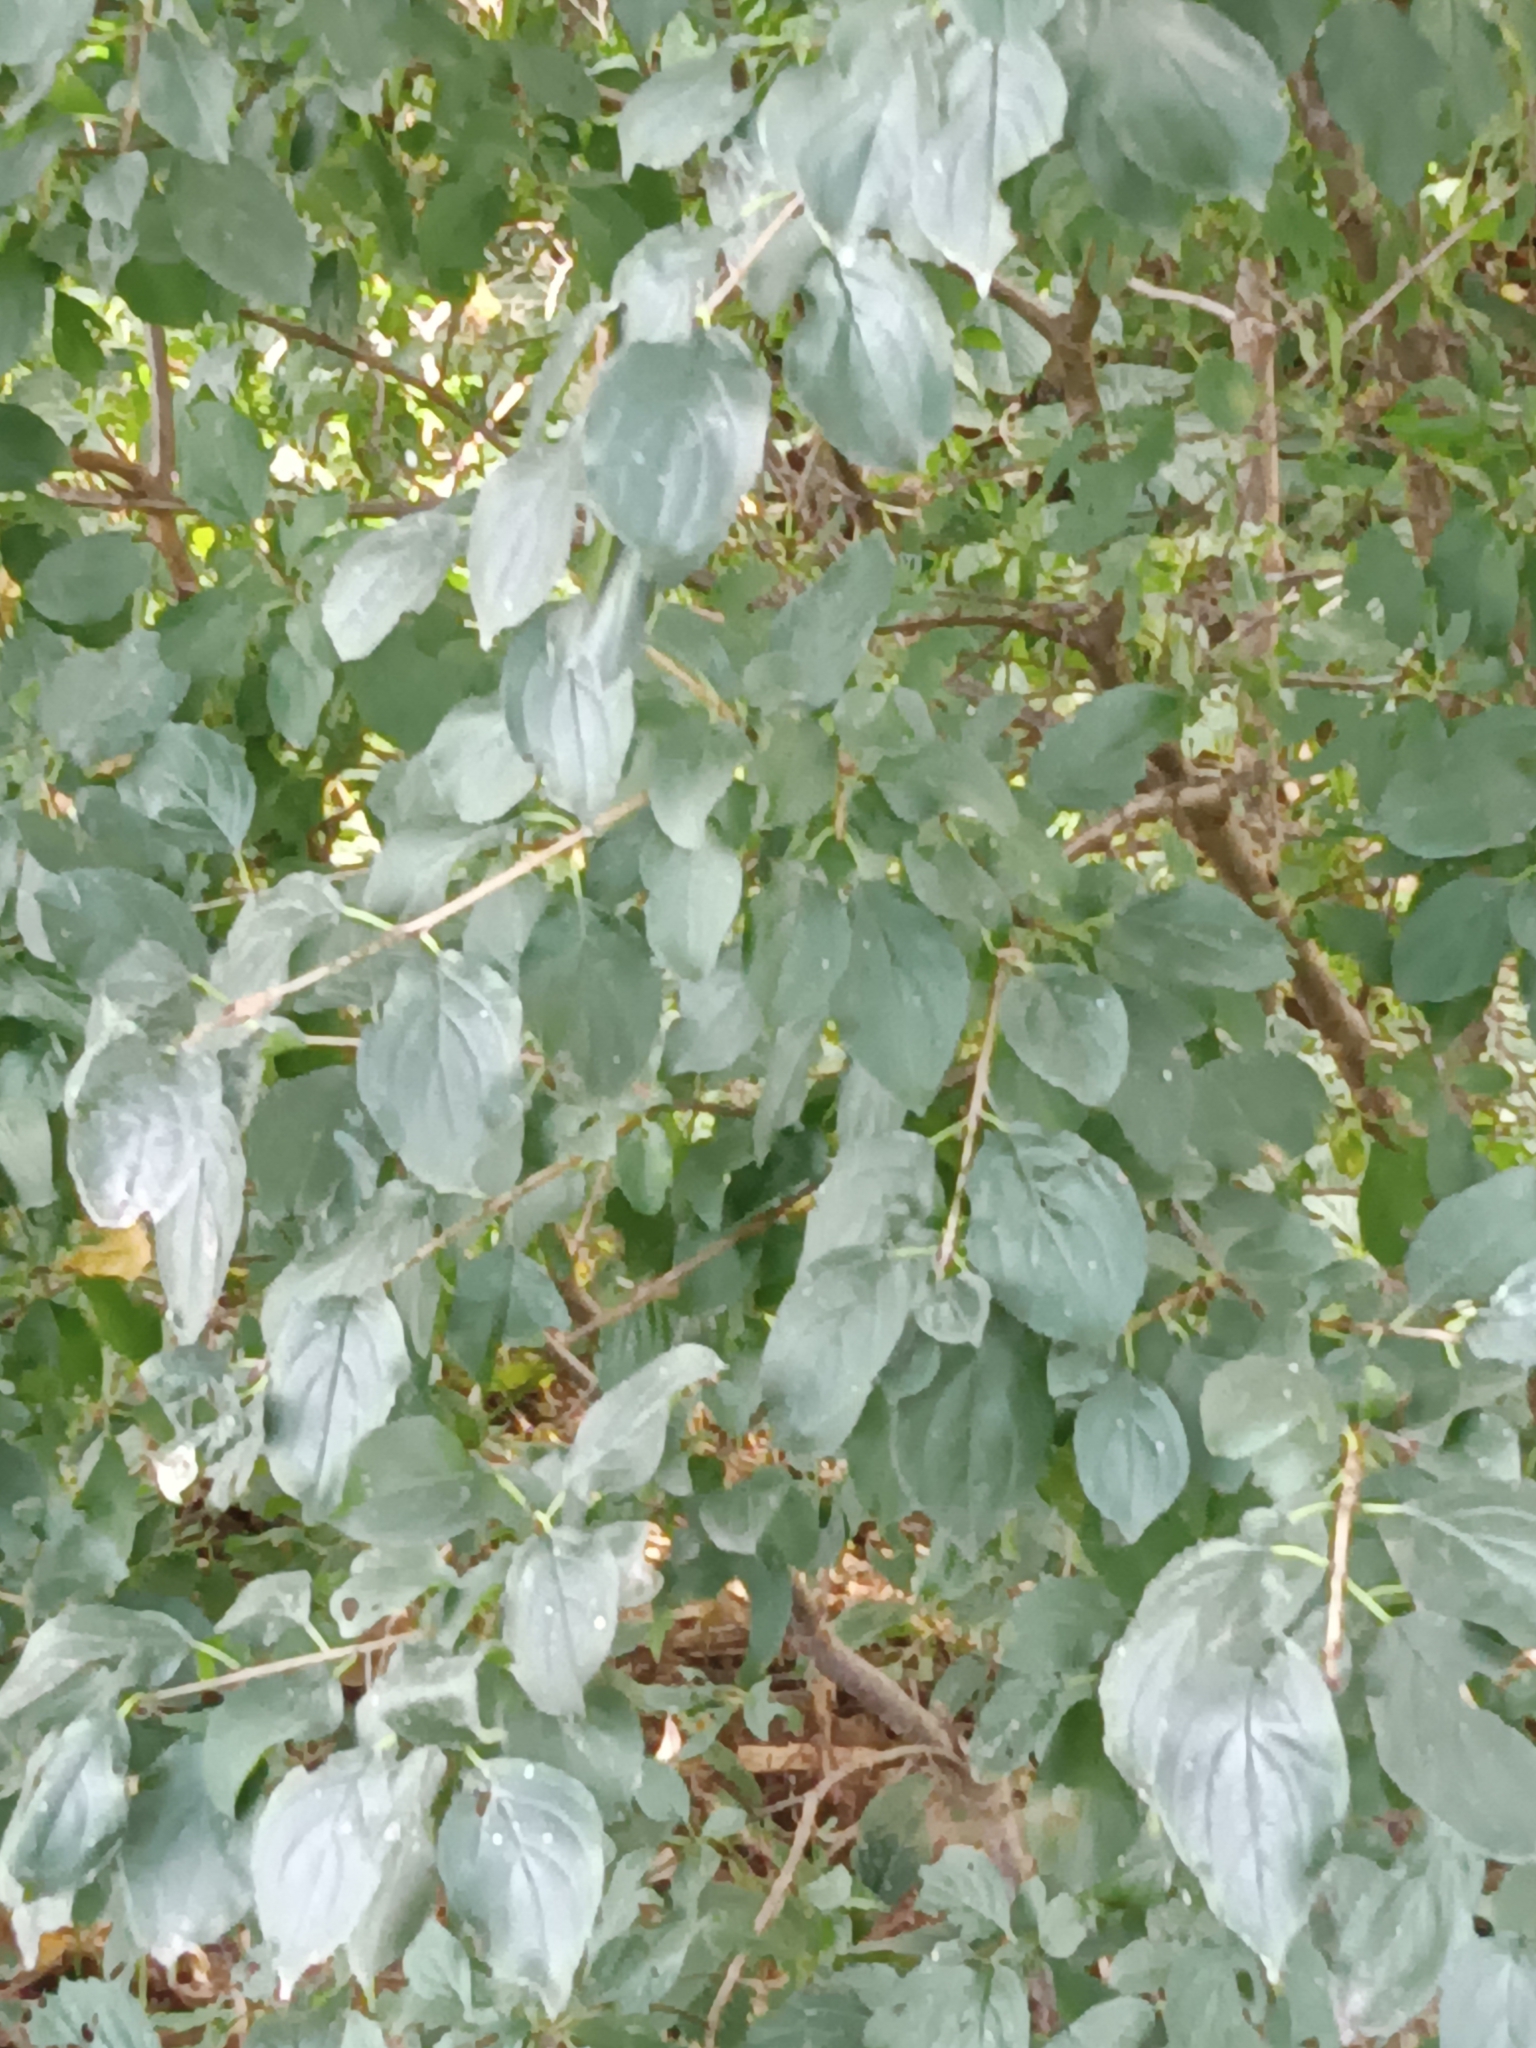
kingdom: Plantae
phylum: Tracheophyta
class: Magnoliopsida
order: Rosales
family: Rhamnaceae
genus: Rhamnus
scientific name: Rhamnus cathartica
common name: Common buckthorn
